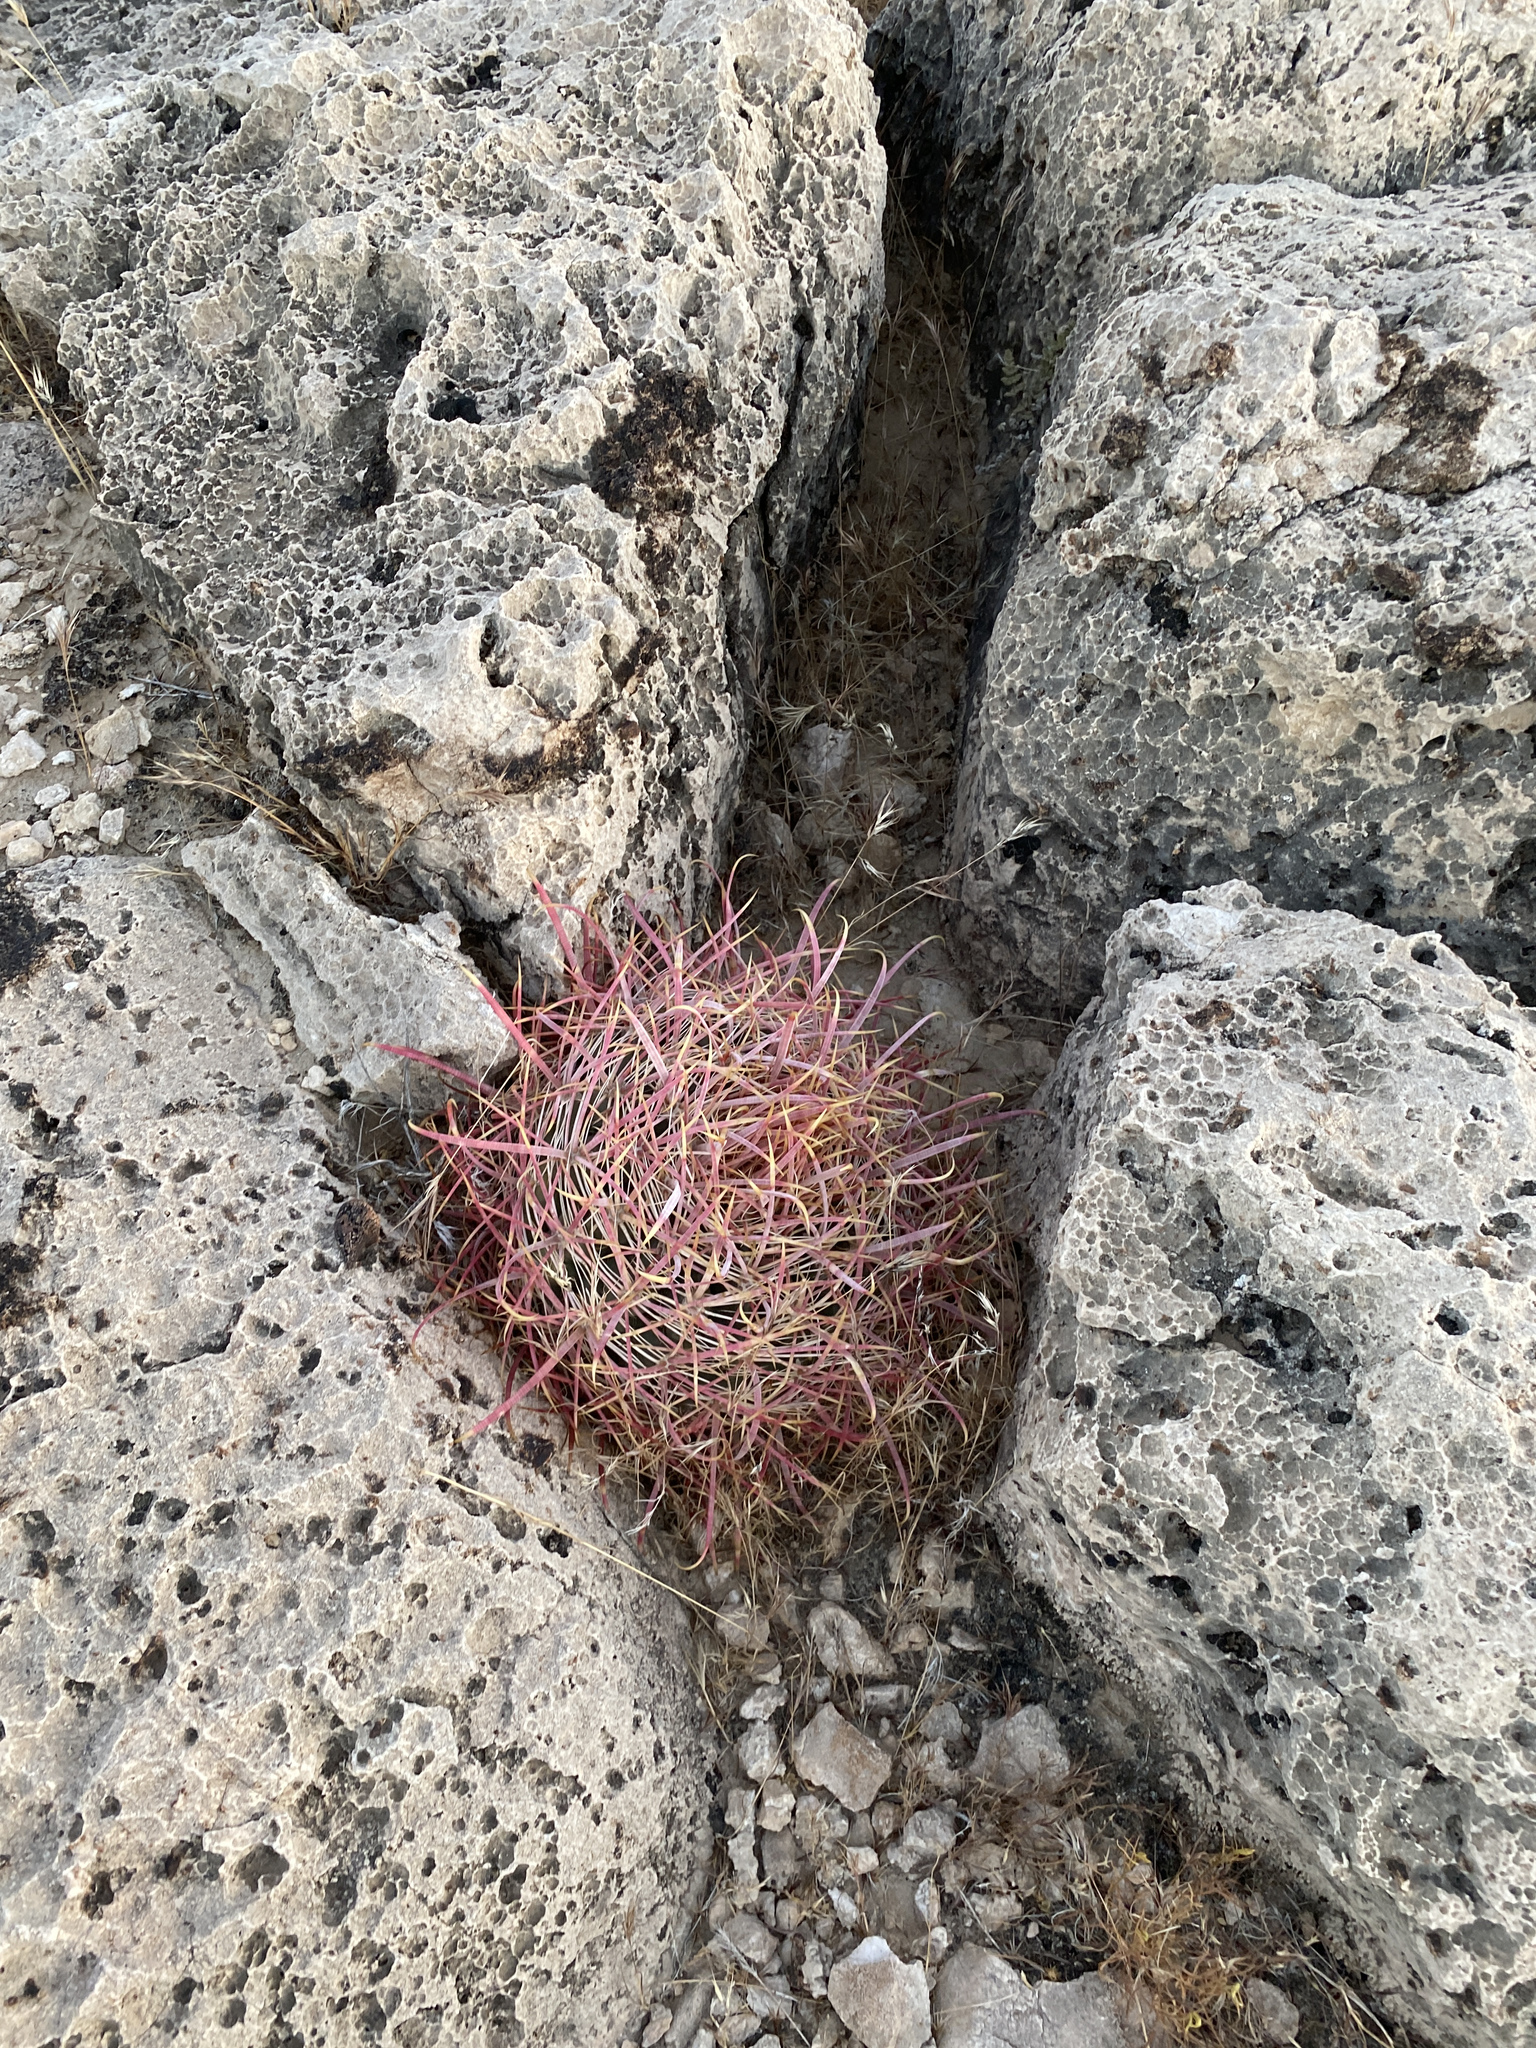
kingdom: Plantae
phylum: Tracheophyta
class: Magnoliopsida
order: Caryophyllales
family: Cactaceae
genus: Ferocactus
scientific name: Ferocactus cylindraceus
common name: California barrel cactus
